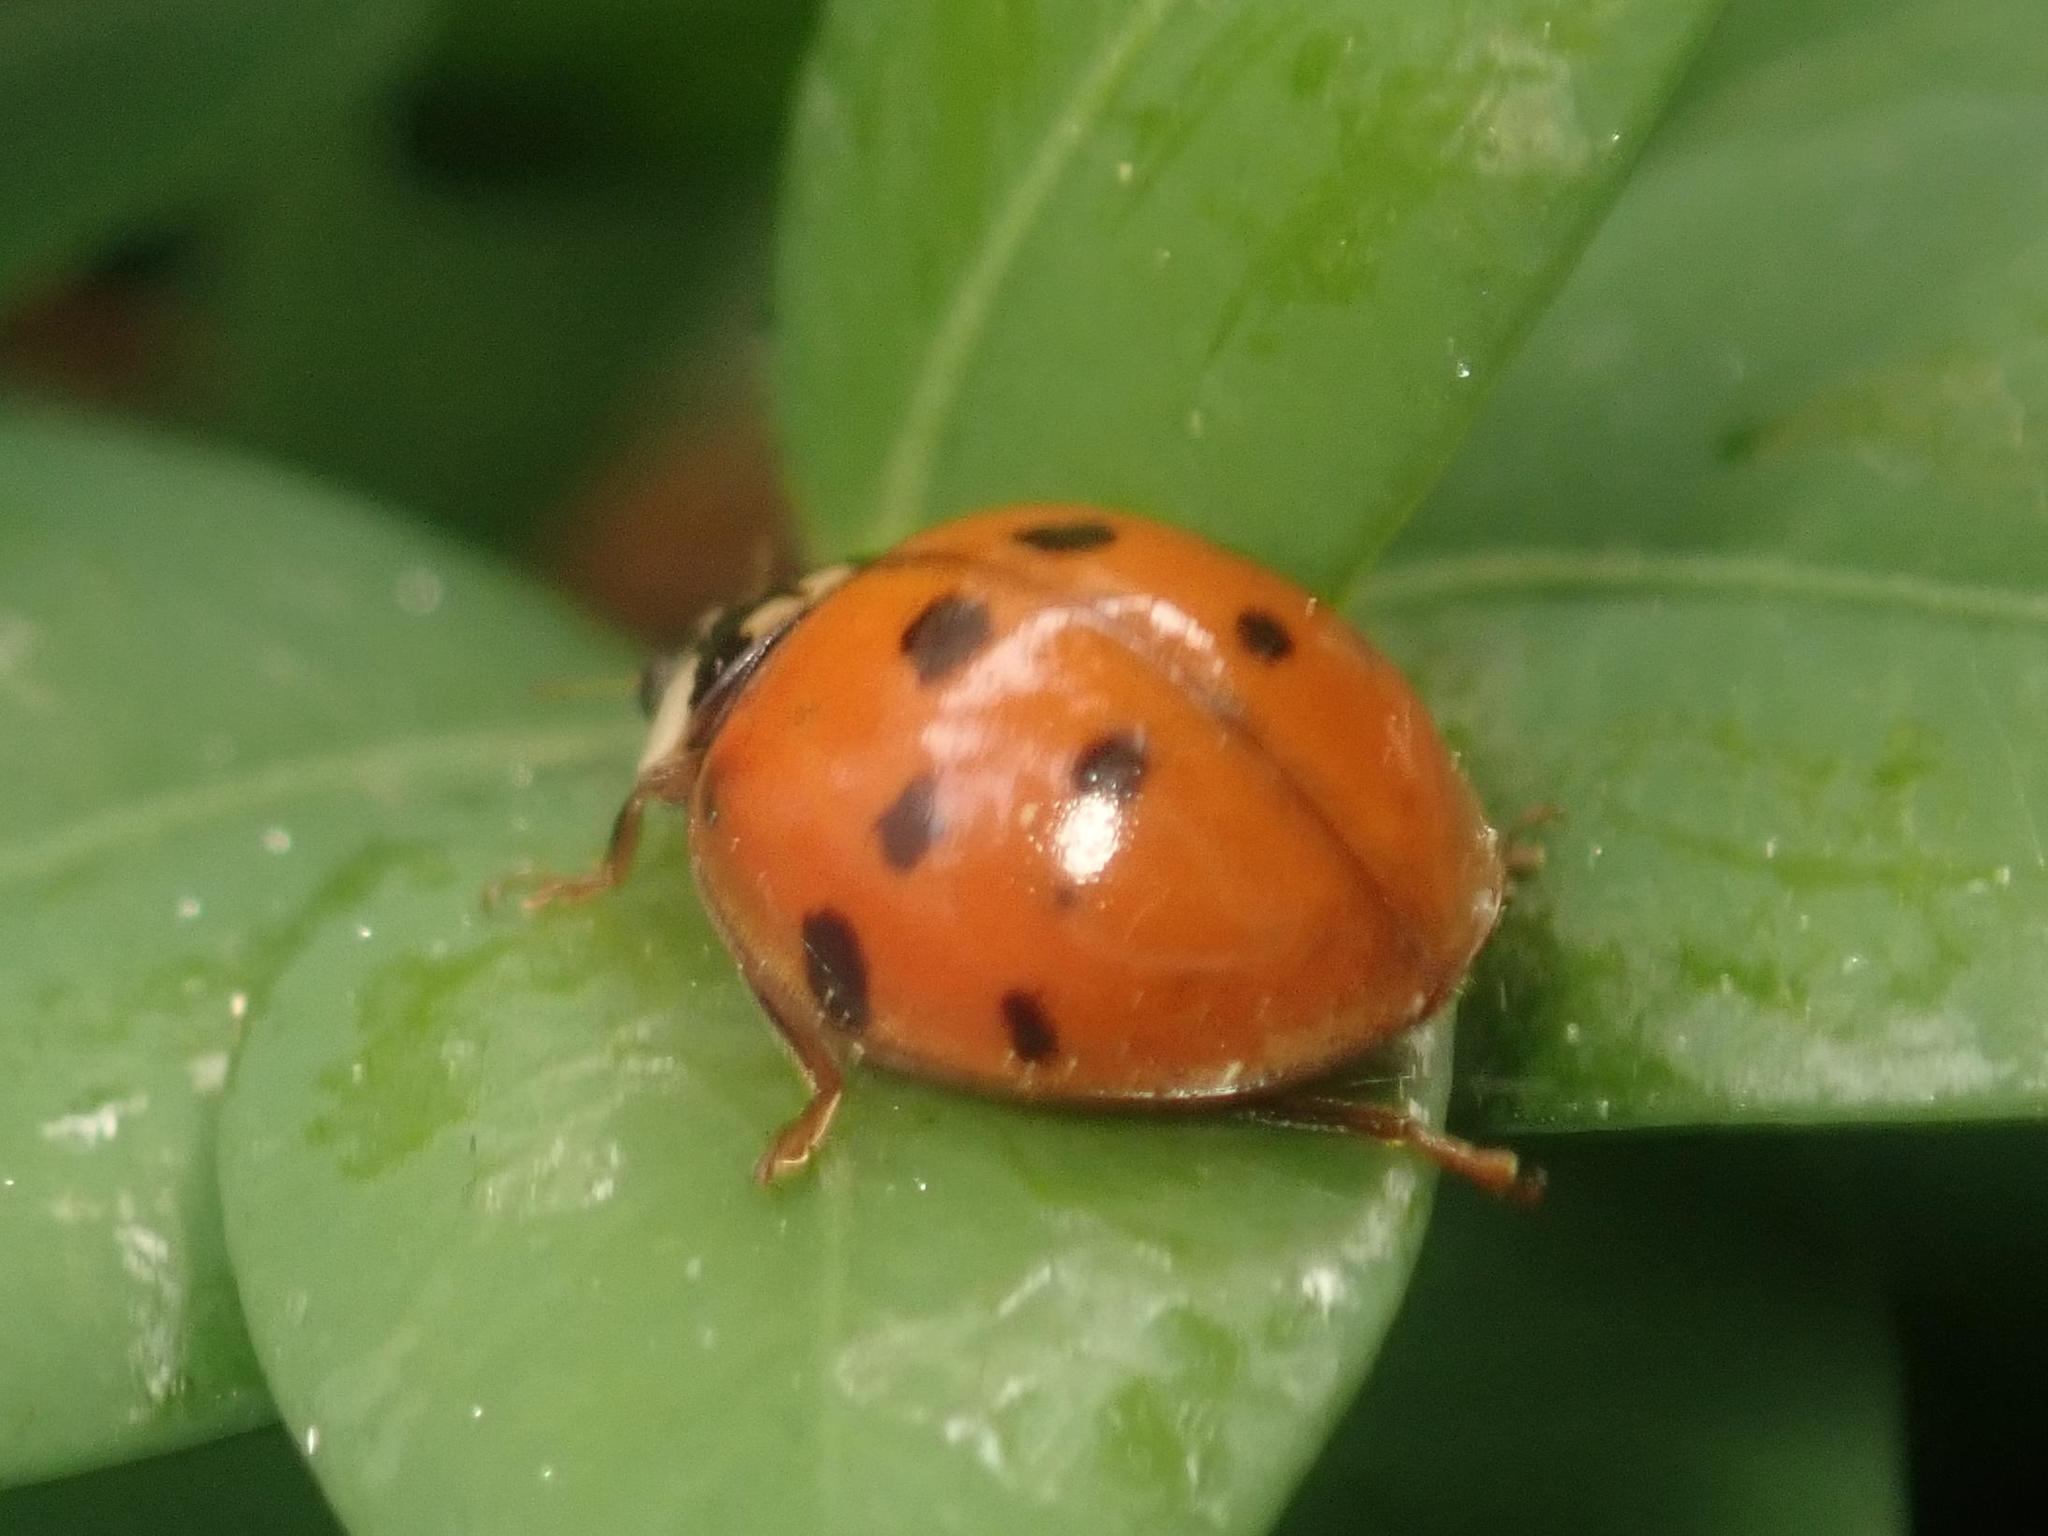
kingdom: Animalia
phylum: Arthropoda
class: Insecta
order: Coleoptera
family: Coccinellidae
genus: Harmonia
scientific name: Harmonia axyridis
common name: Harlequin ladybird
